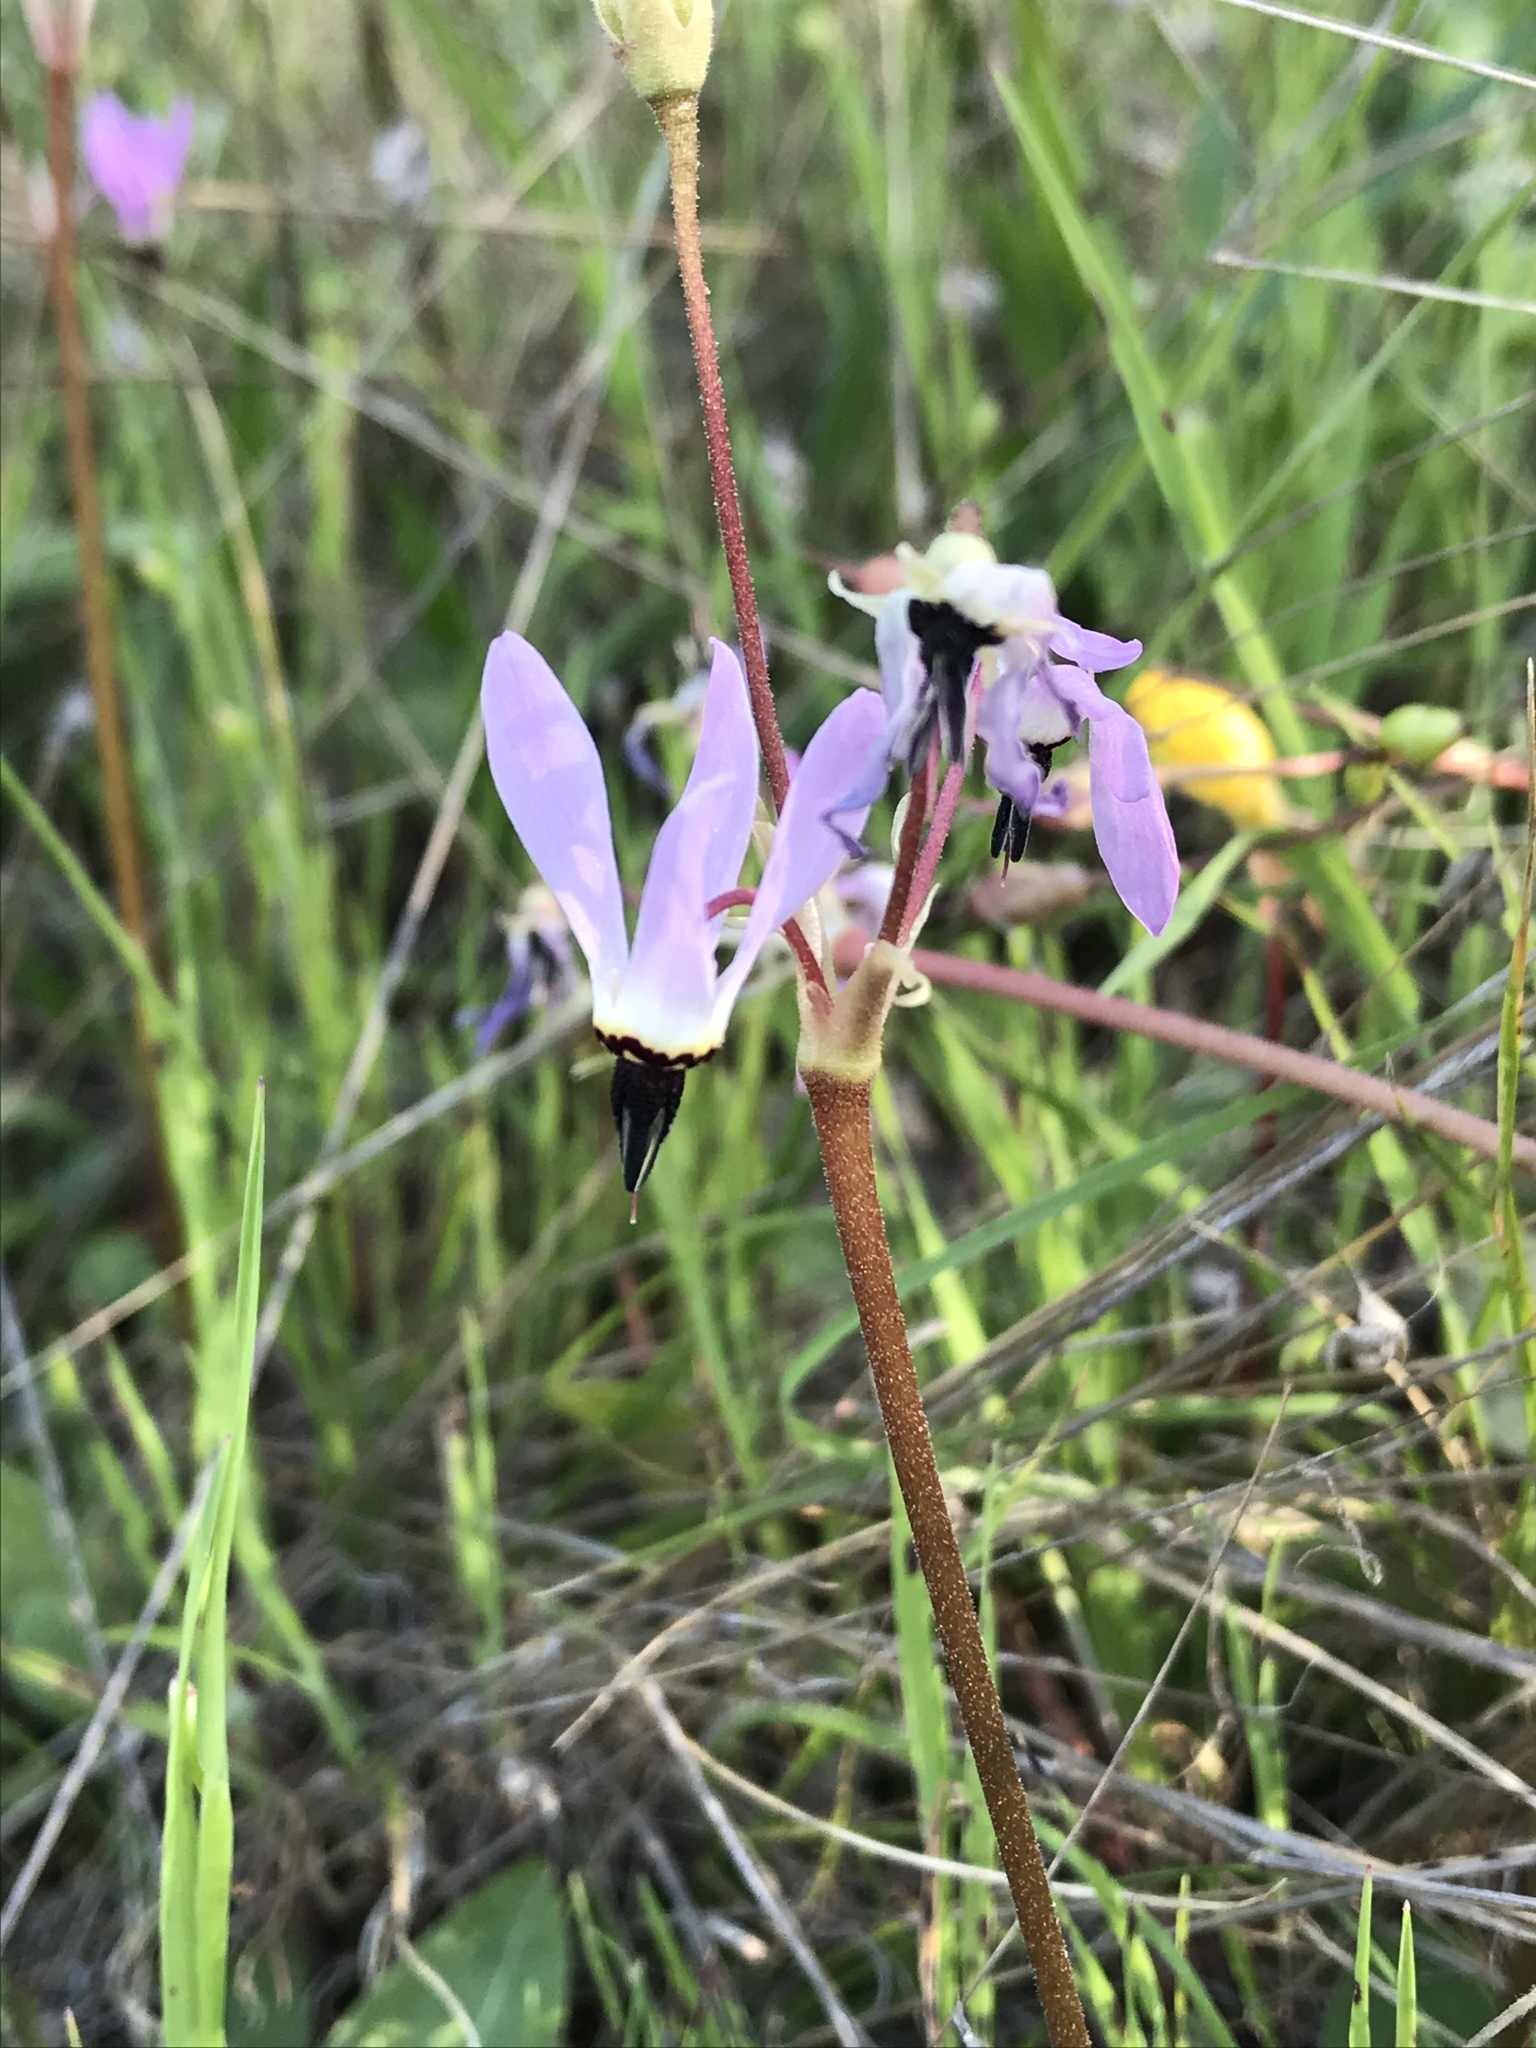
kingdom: Plantae
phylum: Tracheophyta
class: Magnoliopsida
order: Ericales
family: Primulaceae
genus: Dodecatheon
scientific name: Dodecatheon hendersonii
